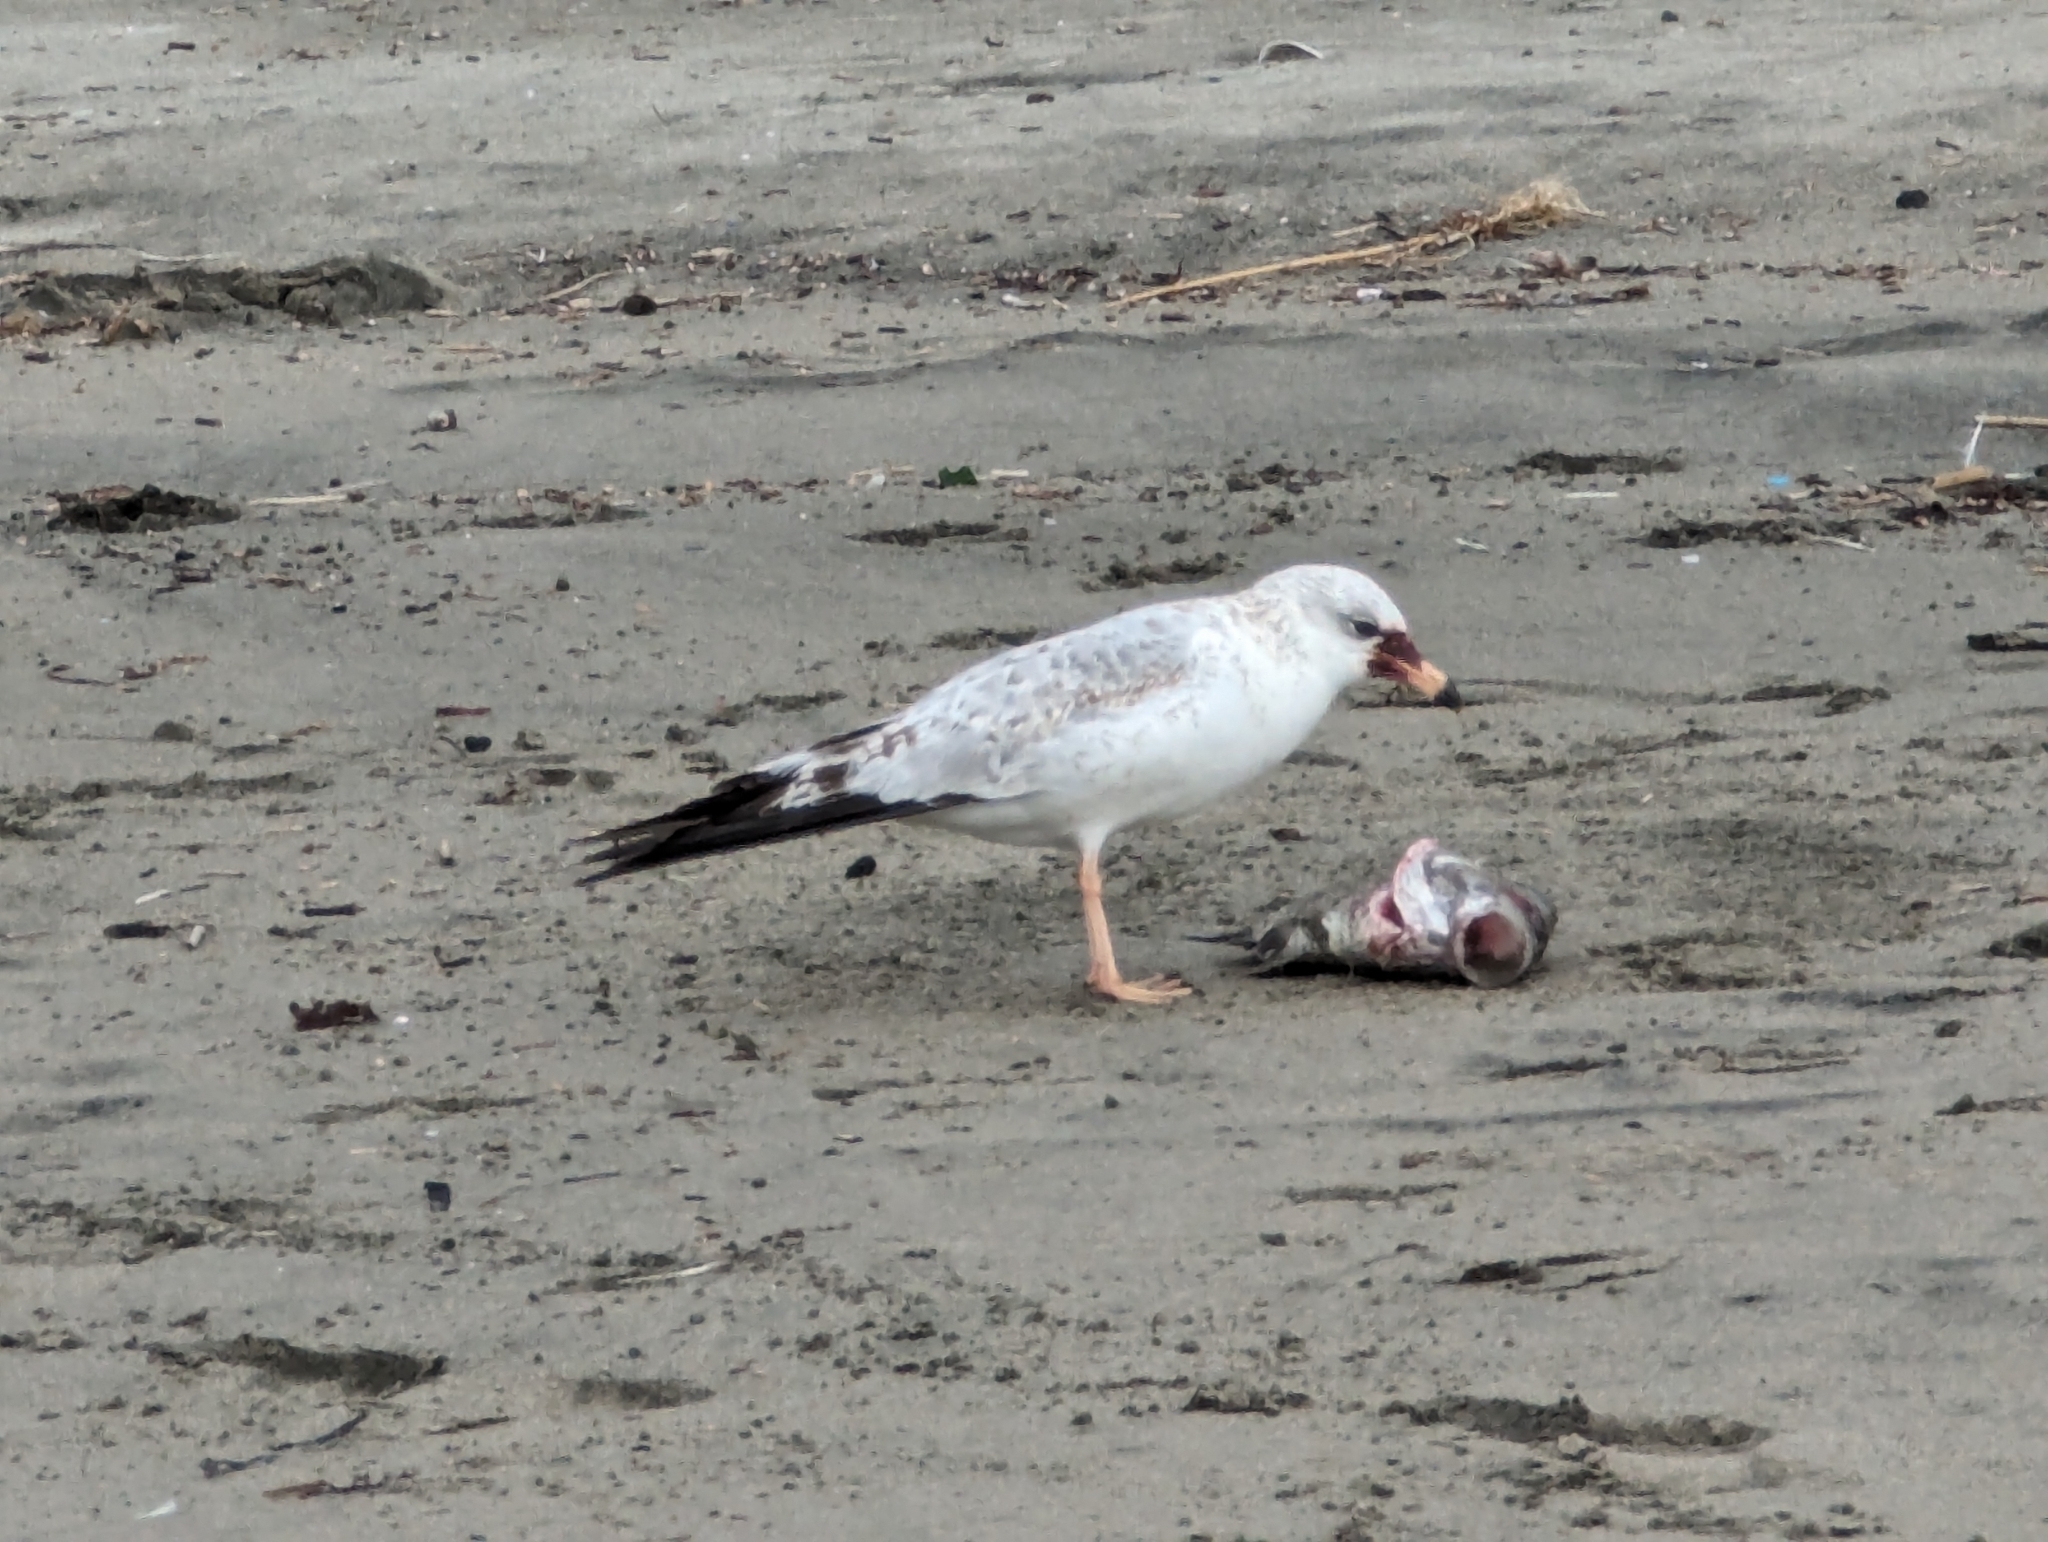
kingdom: Animalia
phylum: Chordata
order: Perciformes
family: Embiotocidae
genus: Amphistichus
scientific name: Amphistichus argenteus
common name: Barred surfperch
